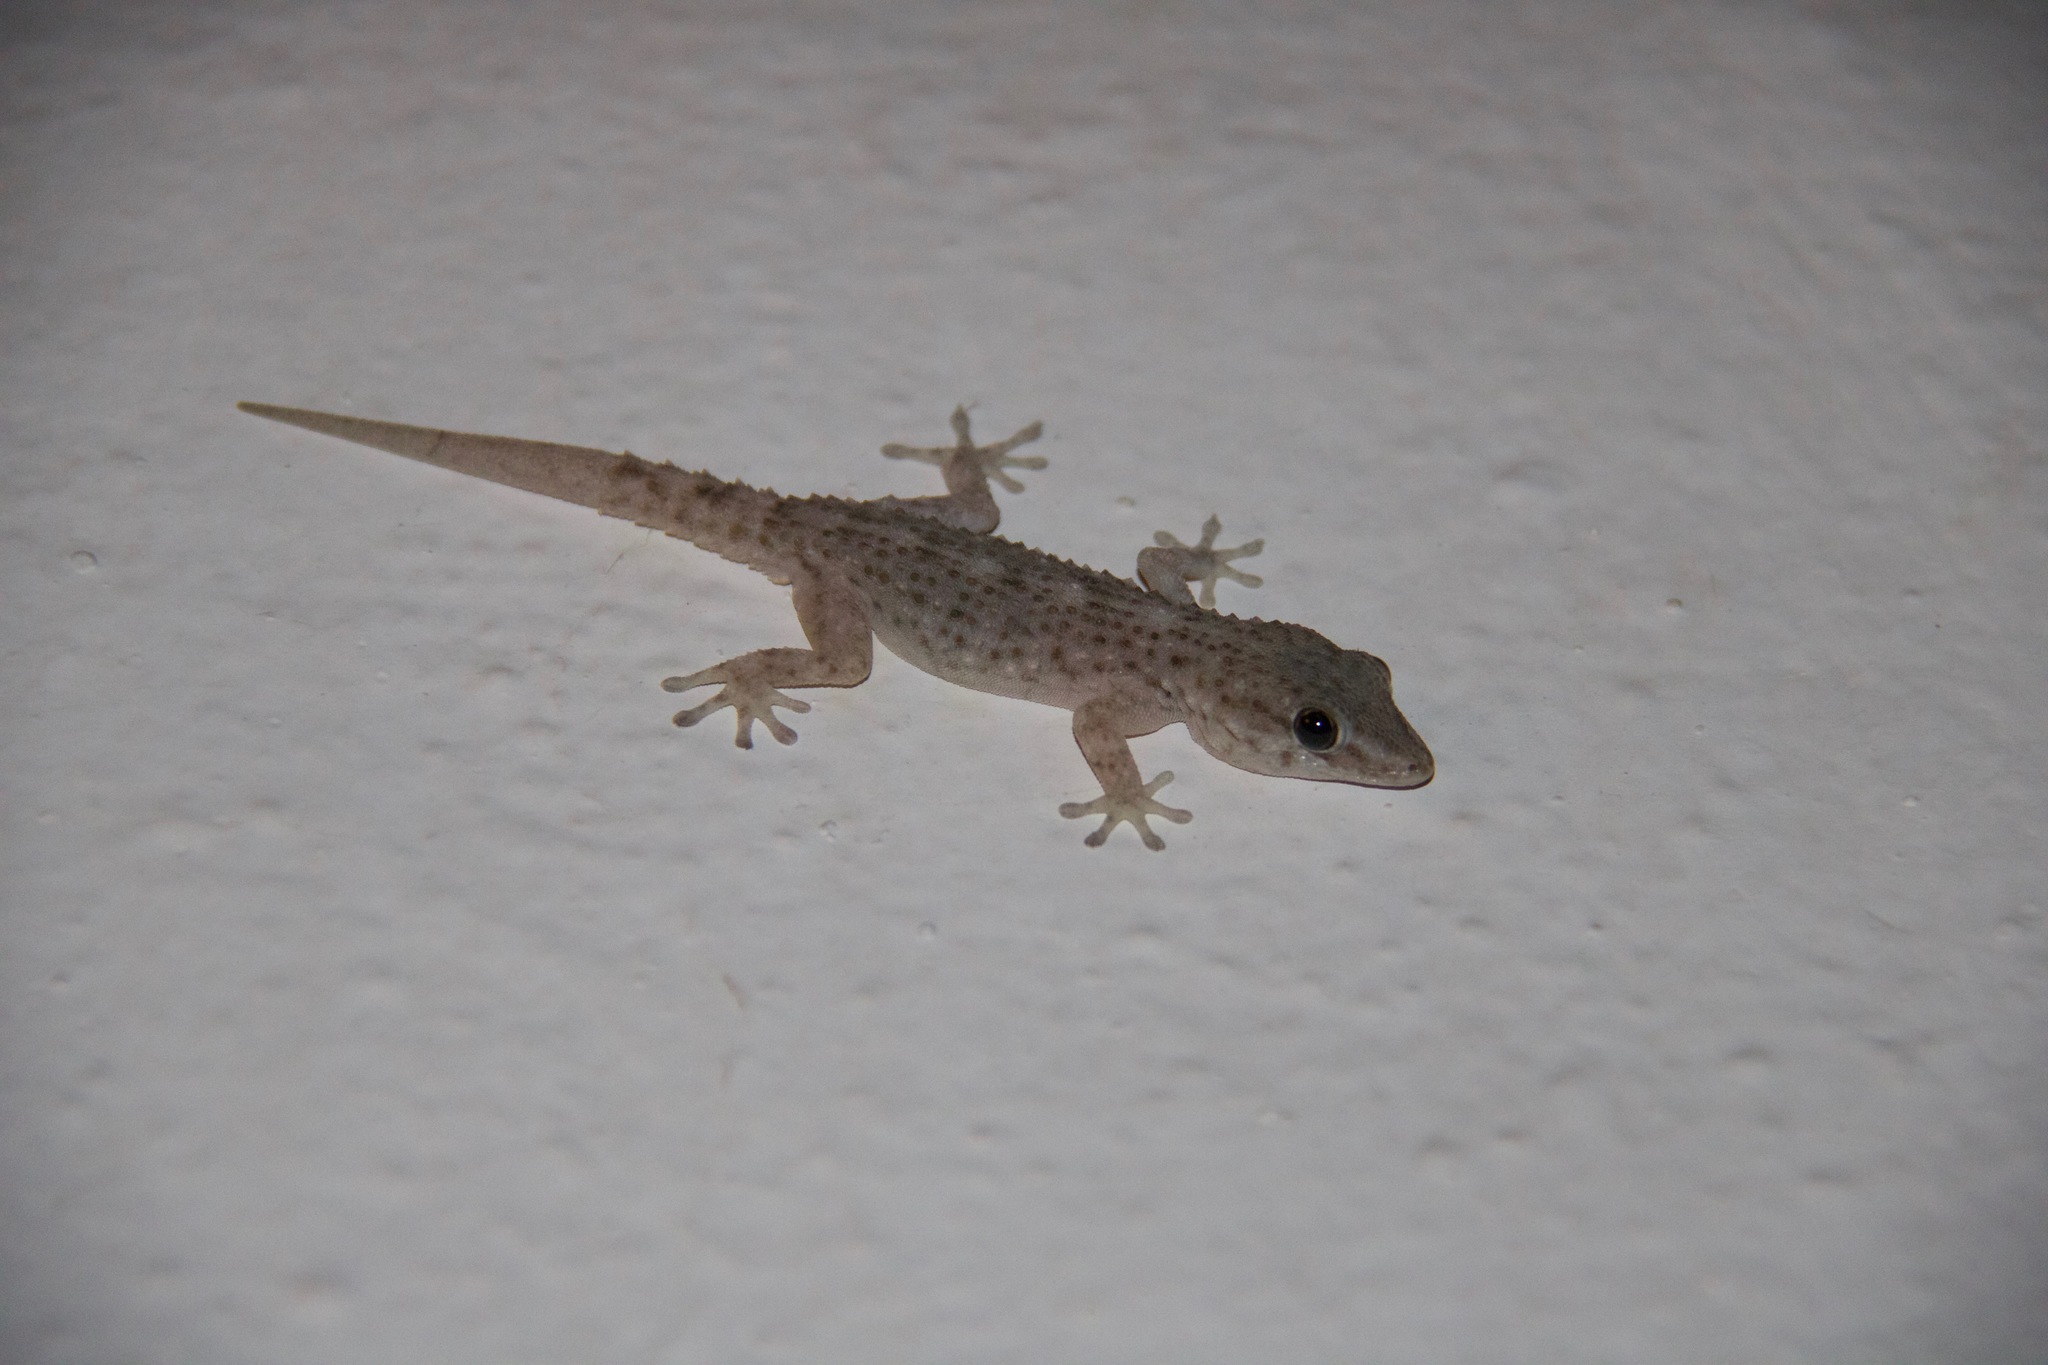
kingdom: Animalia
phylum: Chordata
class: Squamata
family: Phyllodactylidae
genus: Tarentola
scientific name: Tarentola delalandii
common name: Tenerife wall gecko
